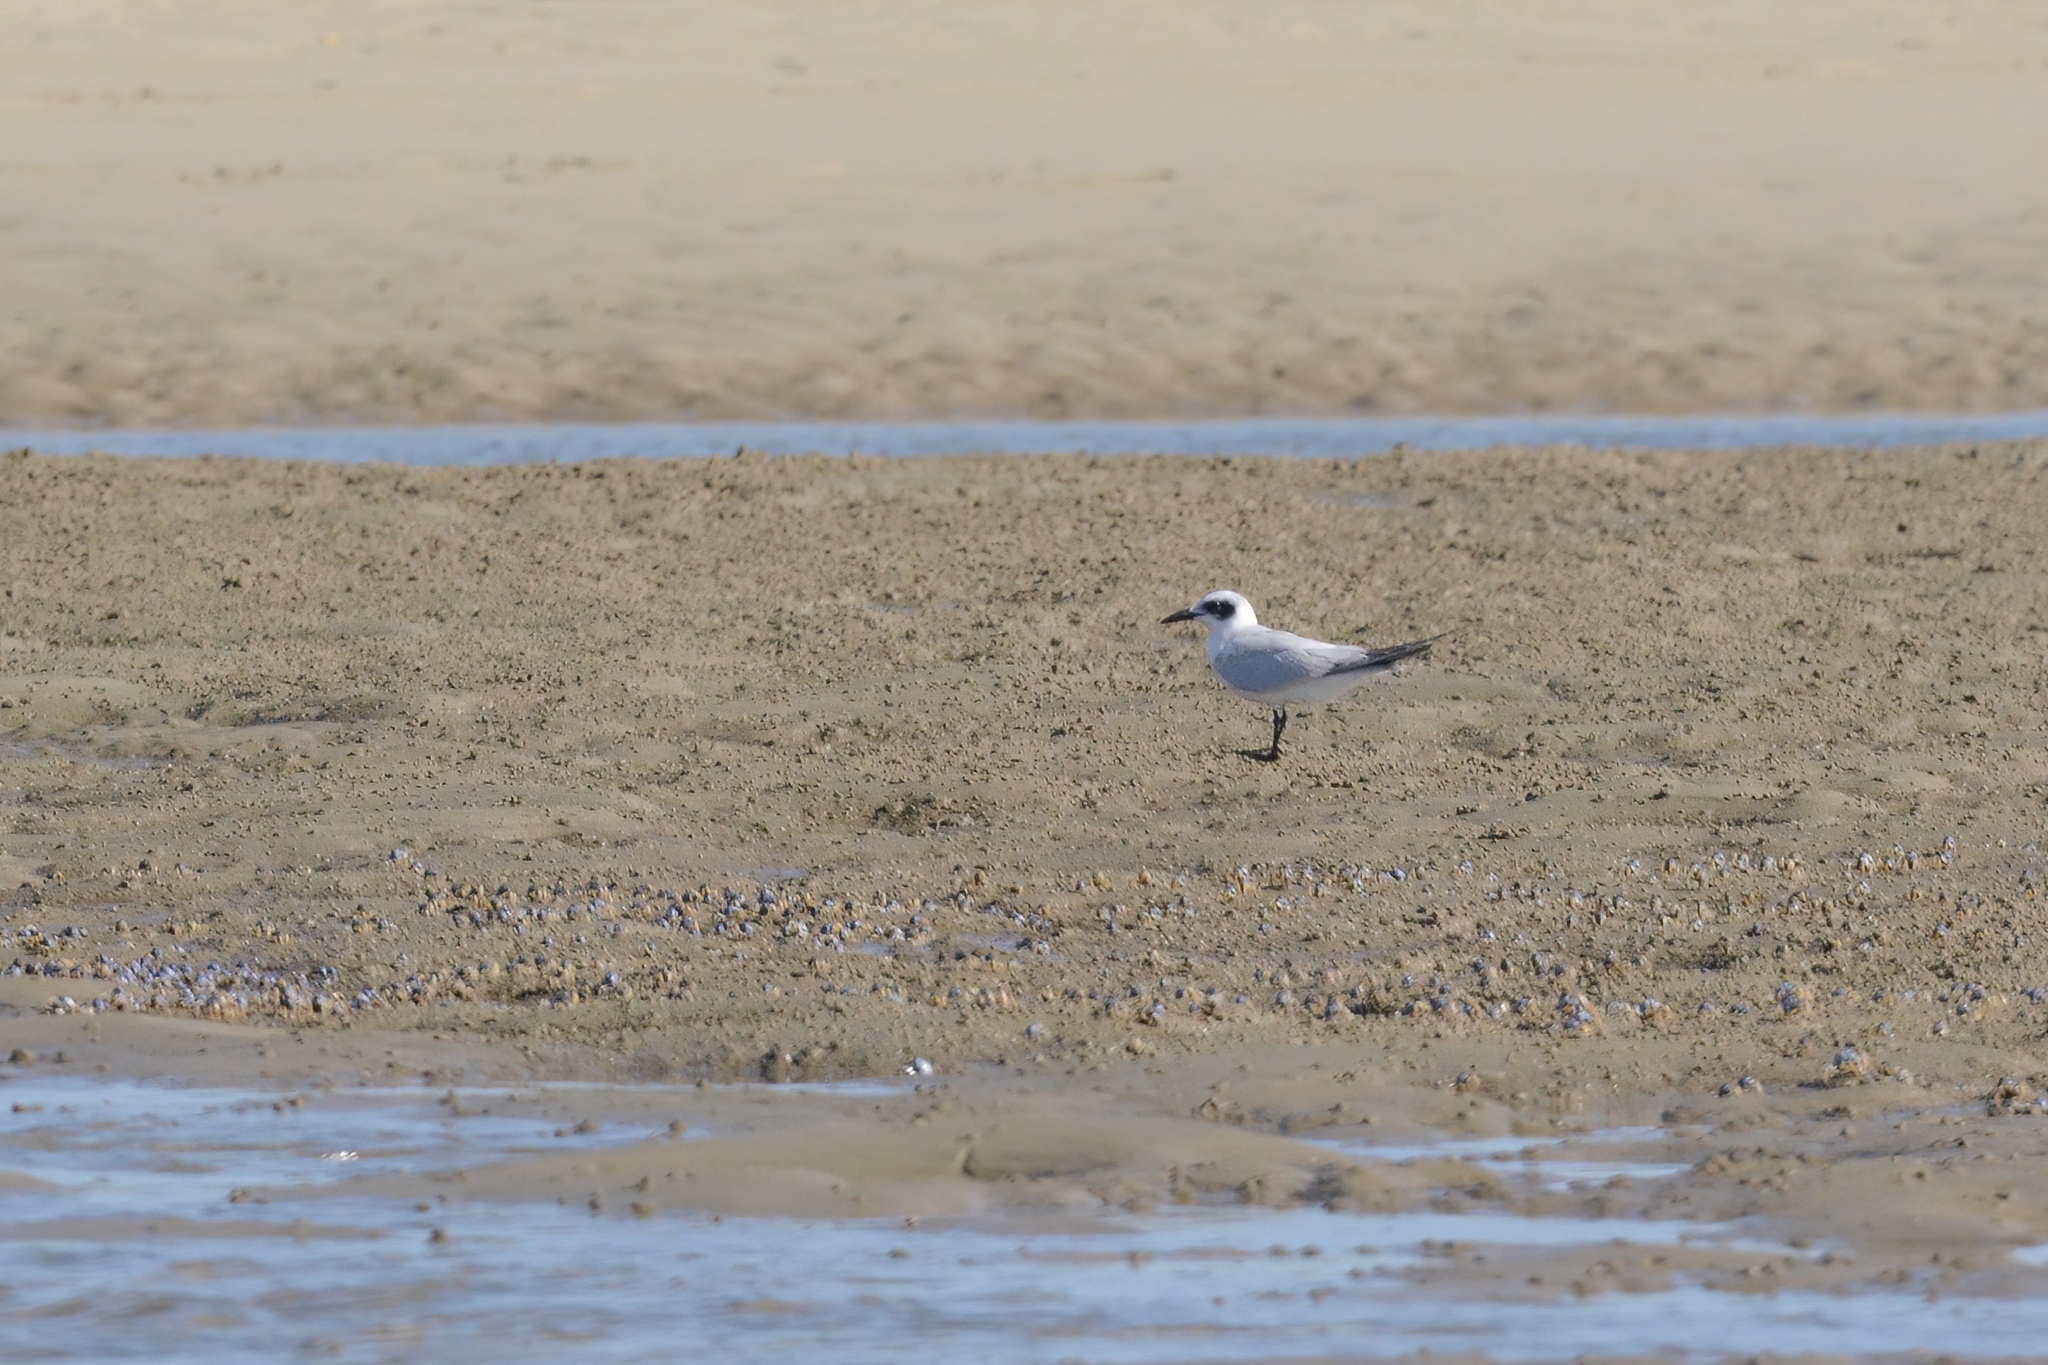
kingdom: Animalia
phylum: Chordata
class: Aves
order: Charadriiformes
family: Laridae
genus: Gelochelidon
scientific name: Gelochelidon macrotarsa
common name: Australian tern
